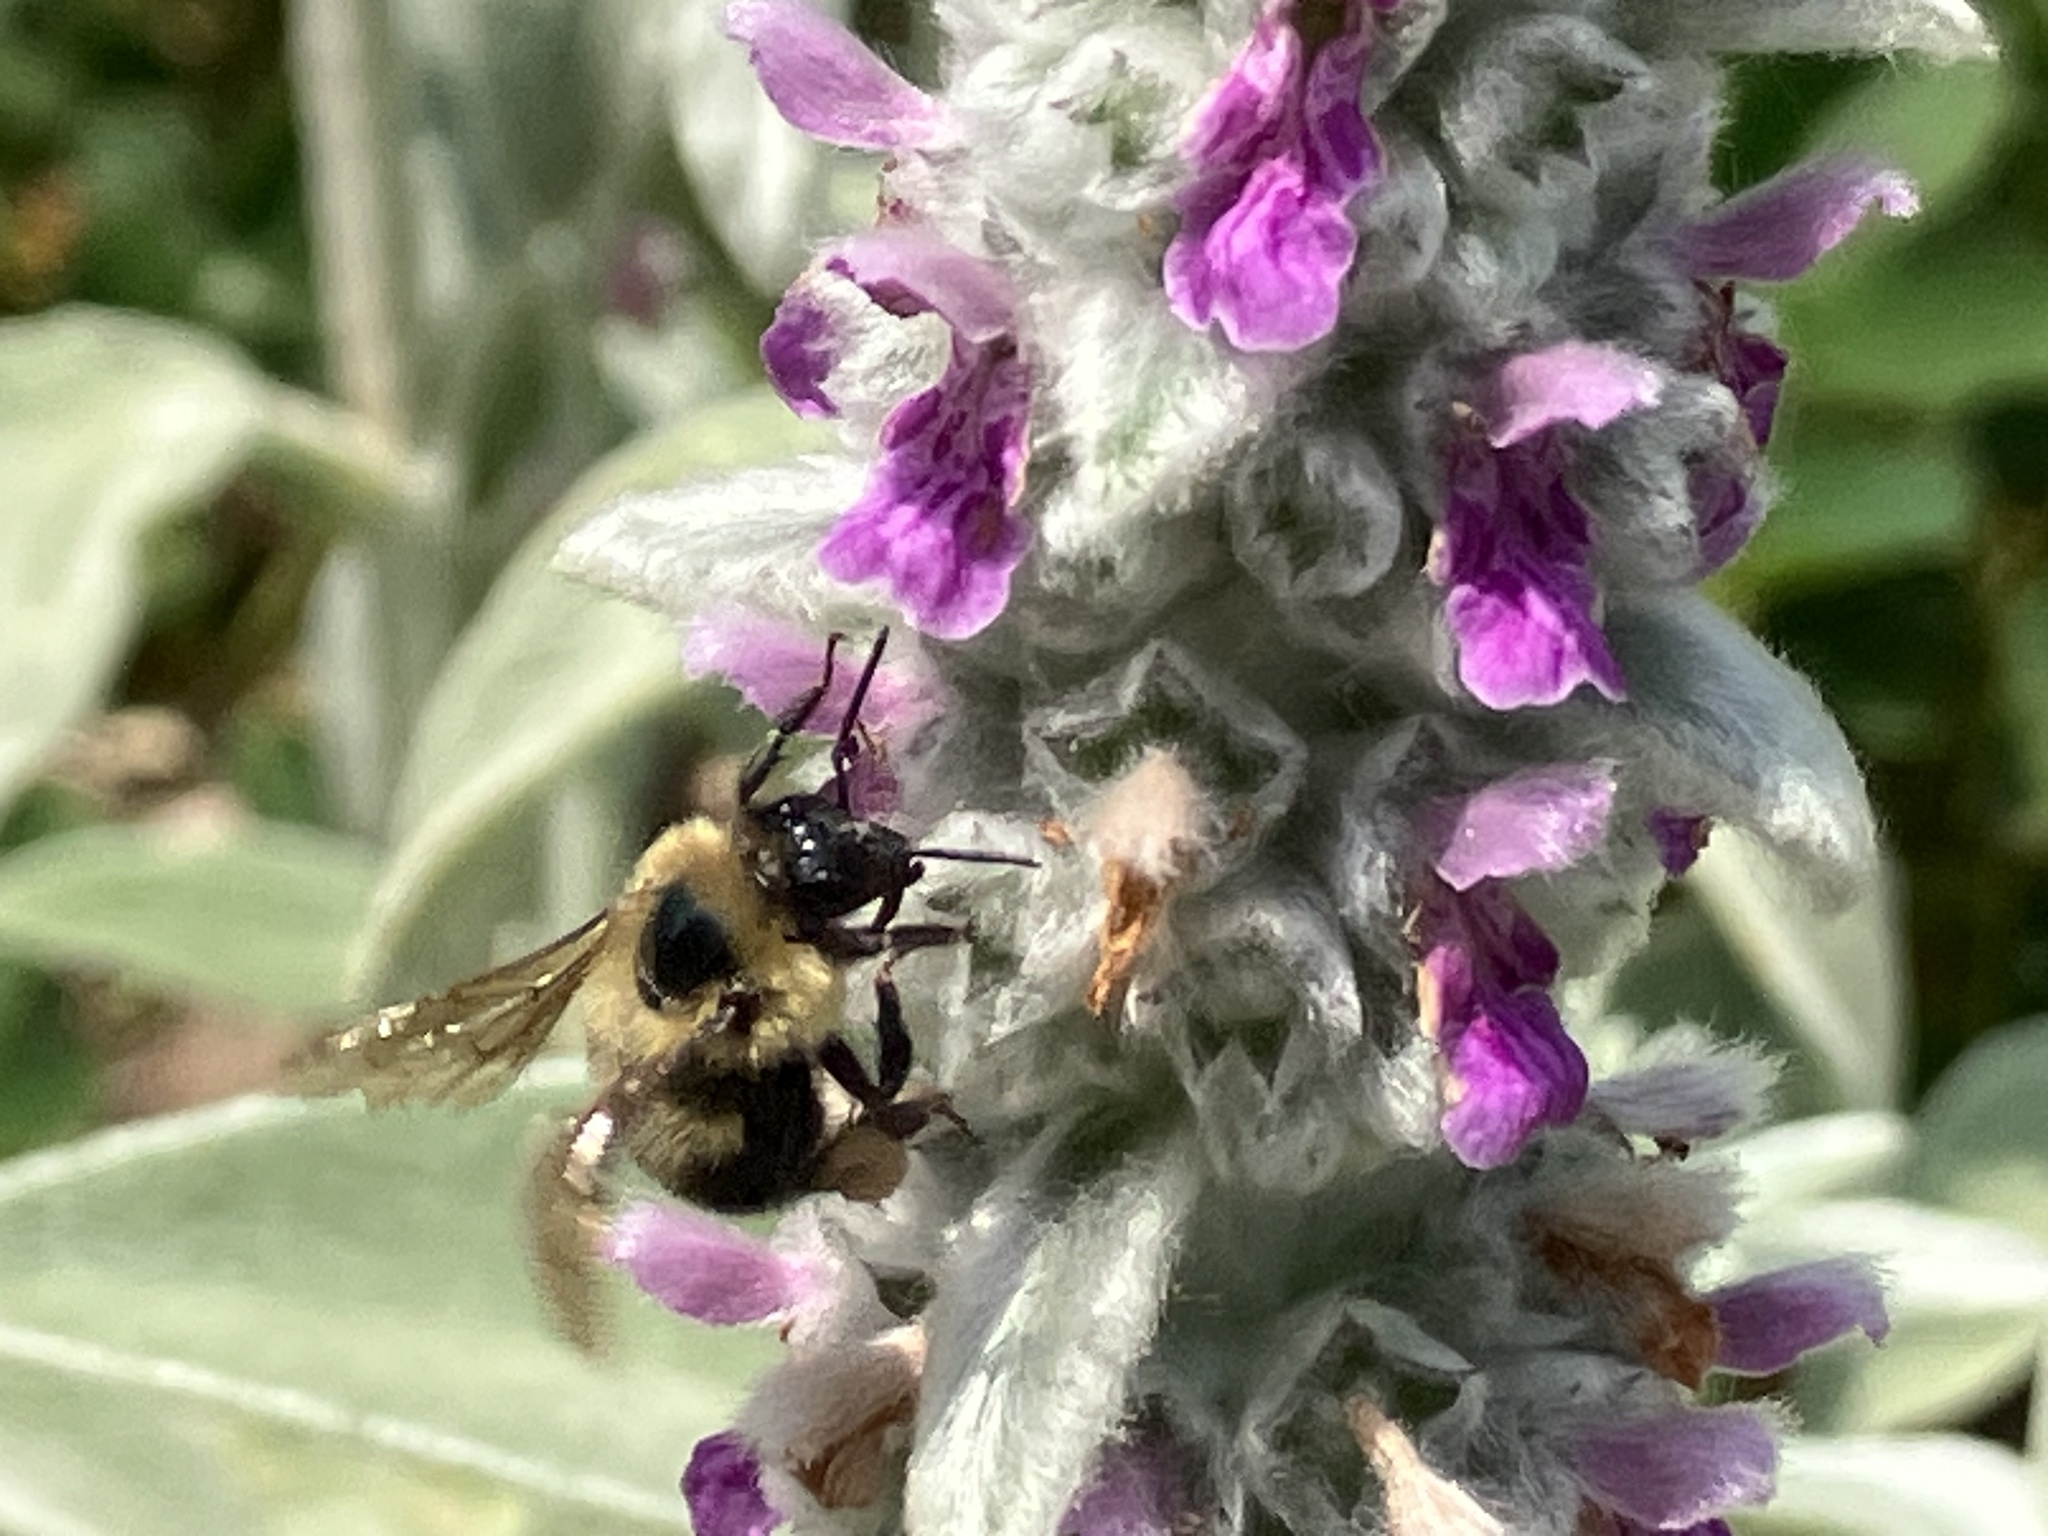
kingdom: Animalia
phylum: Arthropoda
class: Insecta
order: Hymenoptera
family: Apidae
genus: Bombus
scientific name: Bombus bimaculatus
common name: Two-spotted bumble bee
